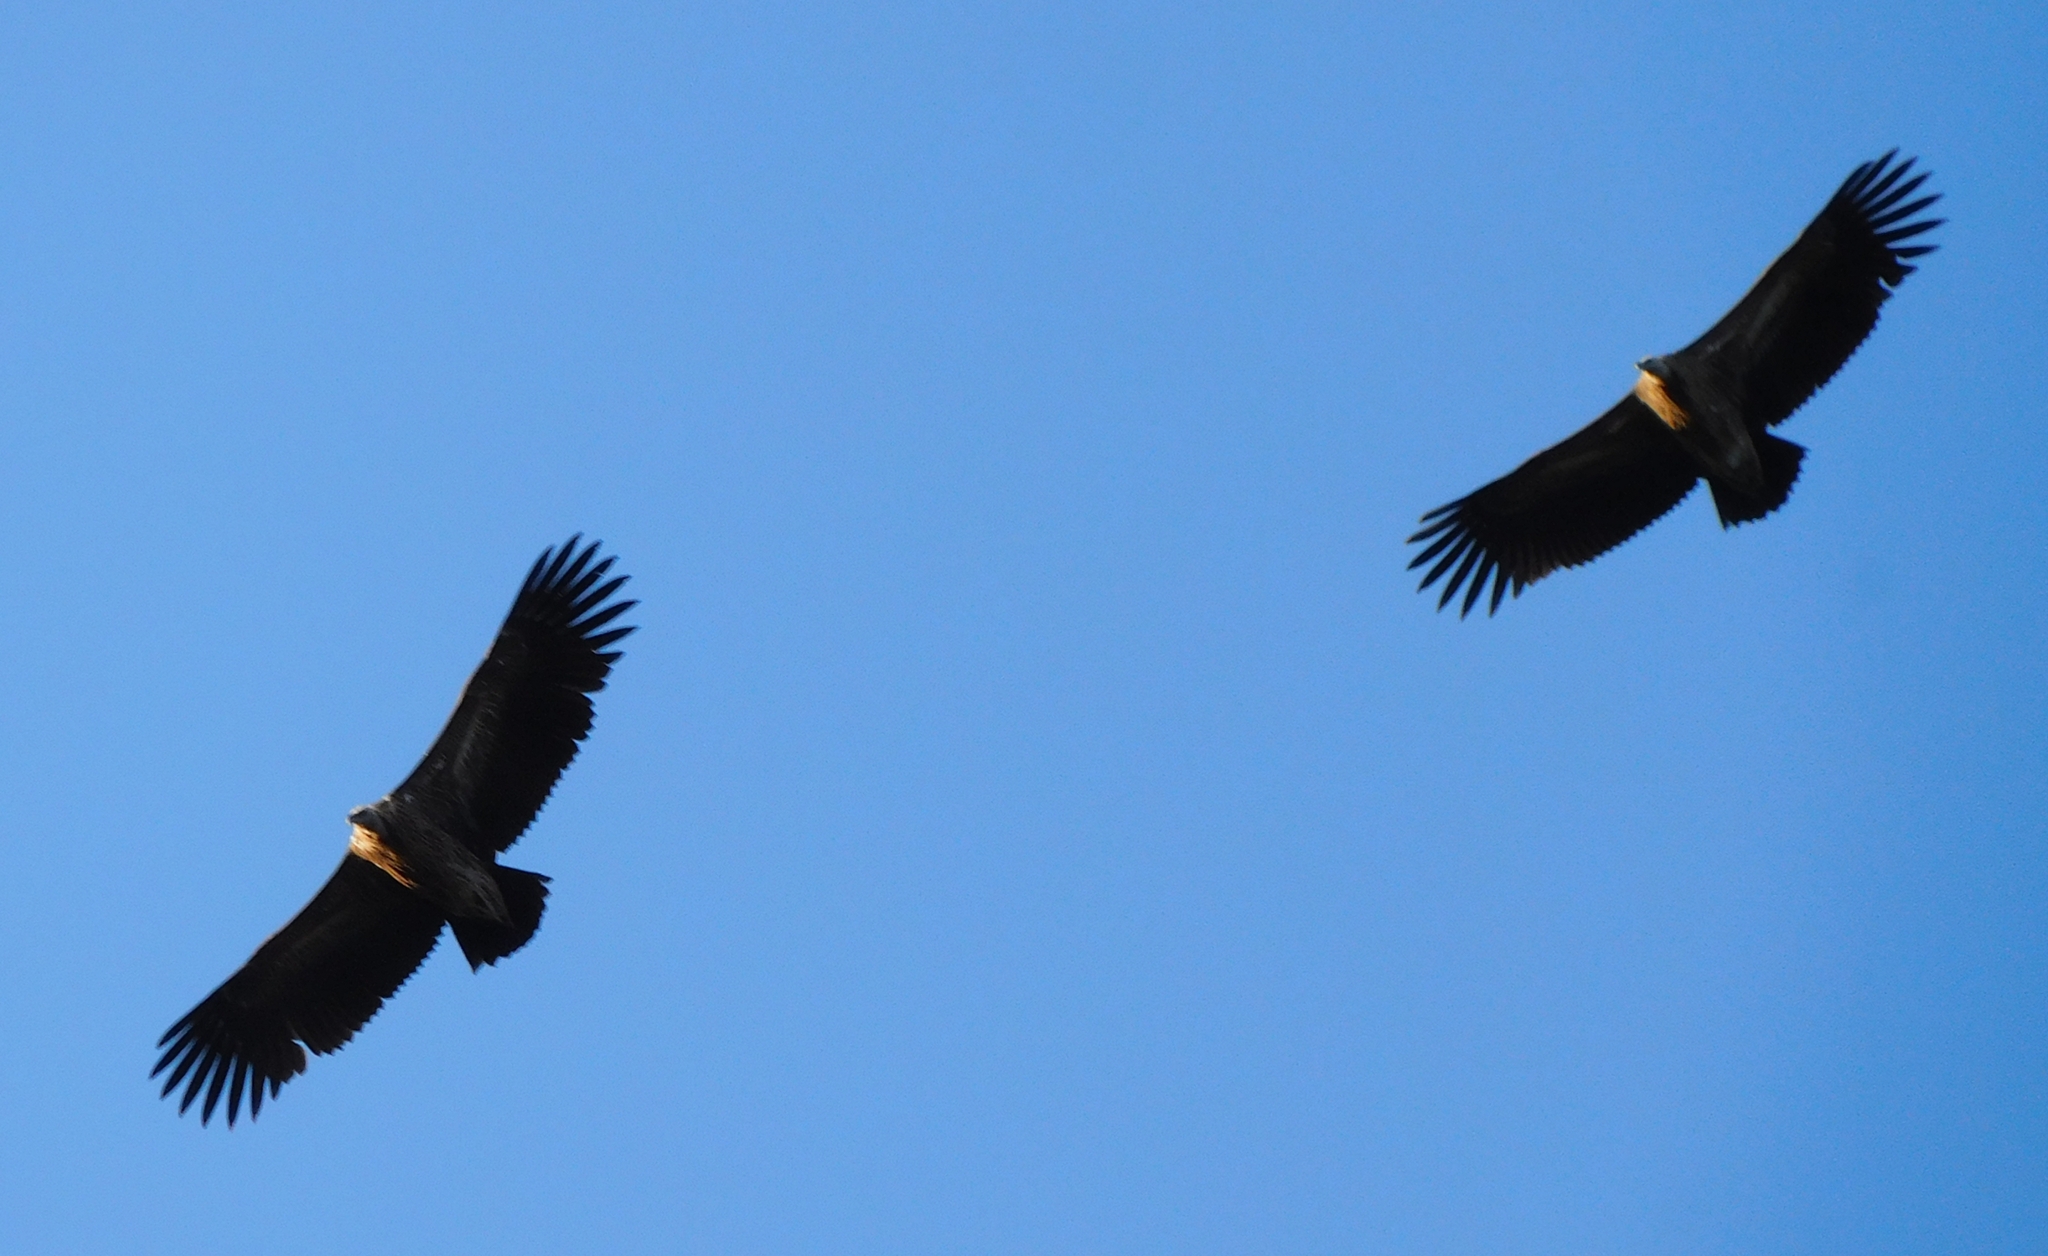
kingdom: Animalia
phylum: Chordata
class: Aves
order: Accipitriformes
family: Accipitridae
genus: Gyps
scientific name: Gyps himalayensis
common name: Himalayan griffon
